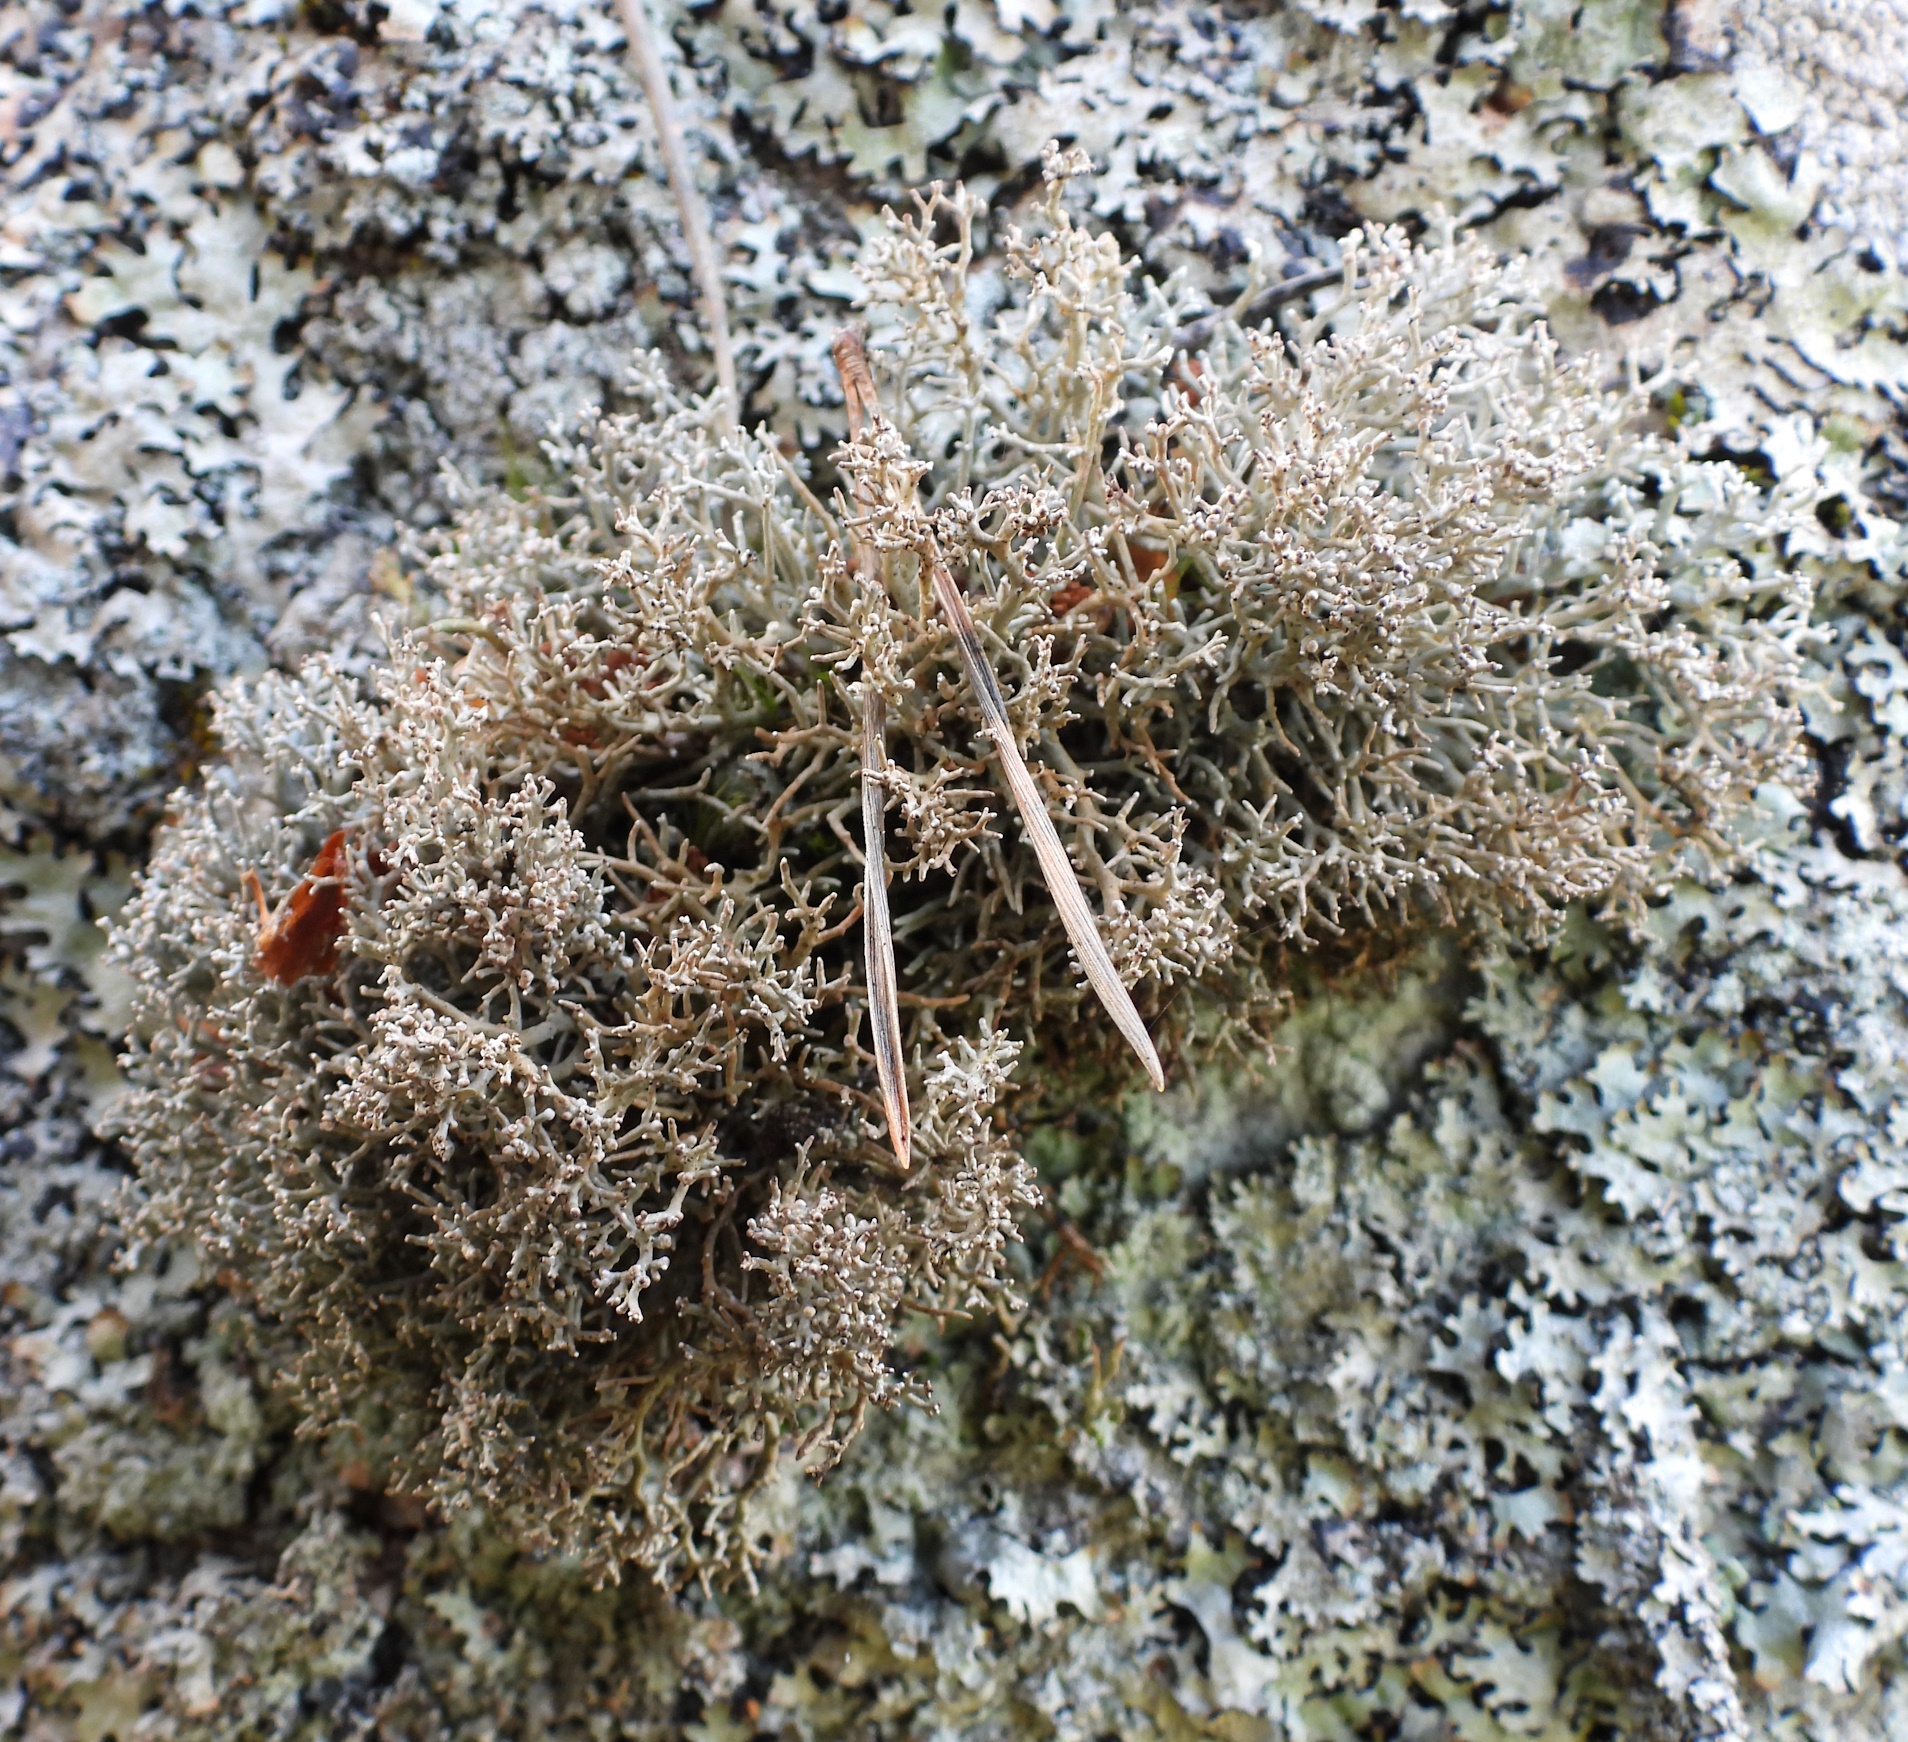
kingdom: Fungi
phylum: Ascomycota
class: Lecanoromycetes
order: Lecanorales
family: Sphaerophoraceae
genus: Sphaerophorus
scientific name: Sphaerophorus fragilis
